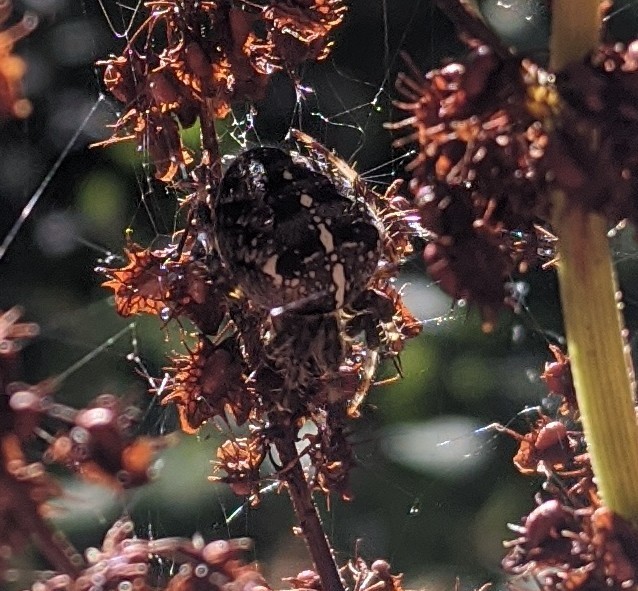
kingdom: Animalia
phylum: Arthropoda
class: Arachnida
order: Araneae
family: Araneidae
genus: Araneus
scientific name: Araneus diadematus
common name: Cross orbweaver
